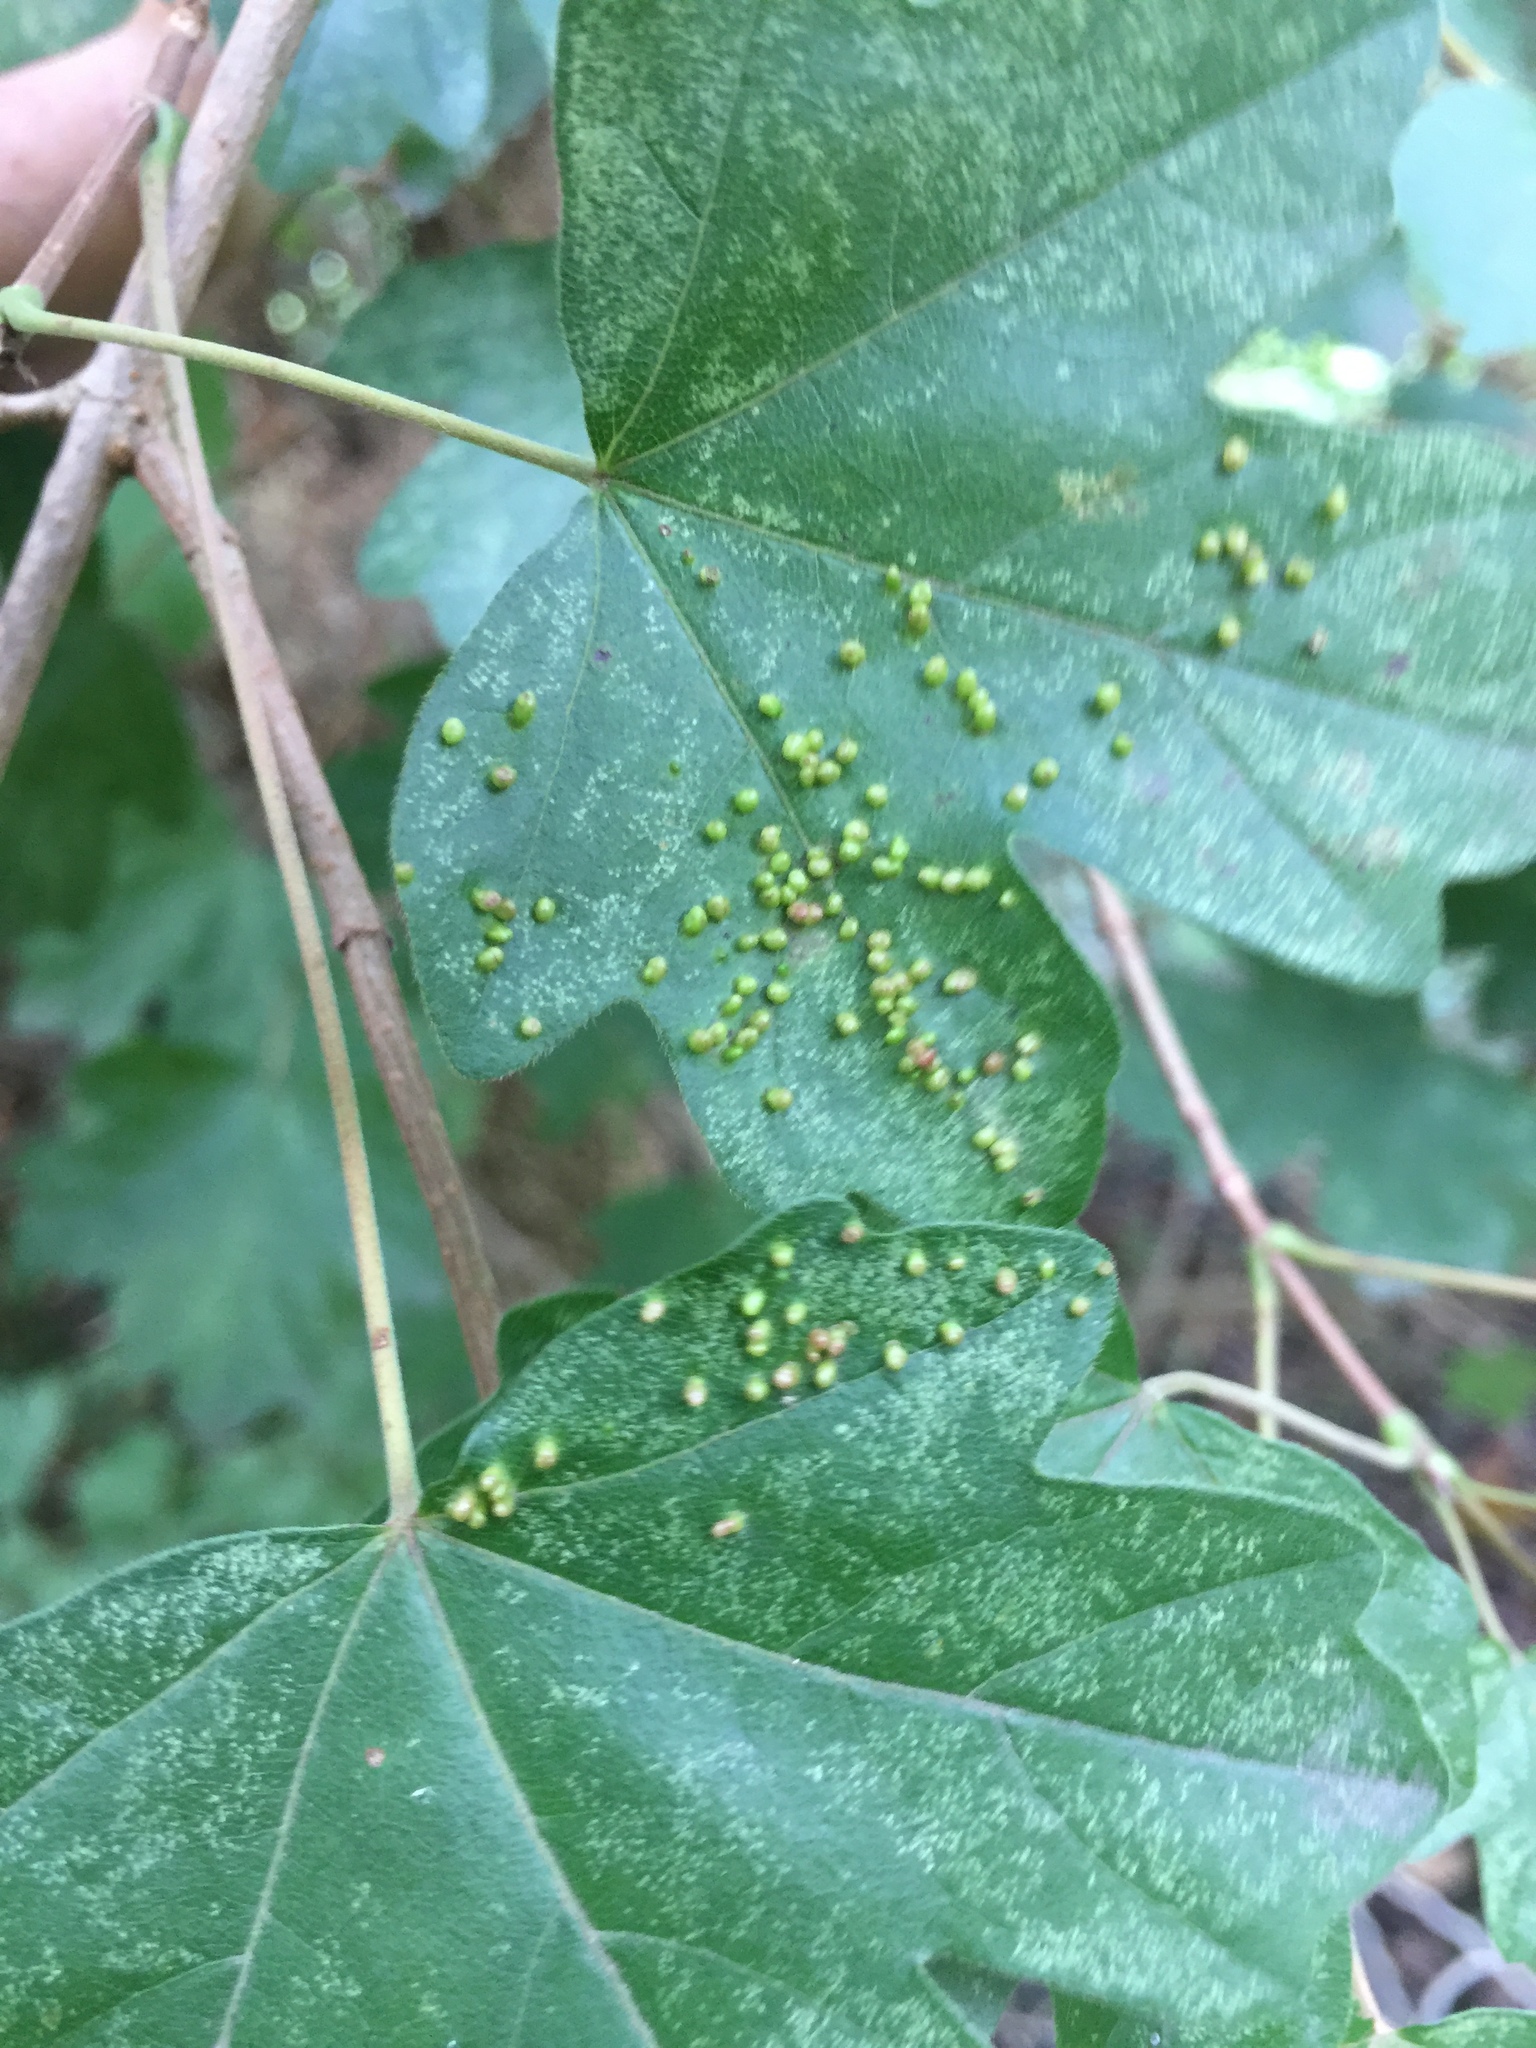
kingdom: Animalia
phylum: Arthropoda
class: Arachnida
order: Trombidiformes
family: Eriophyidae
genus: Aceria
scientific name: Aceria myriadeum
